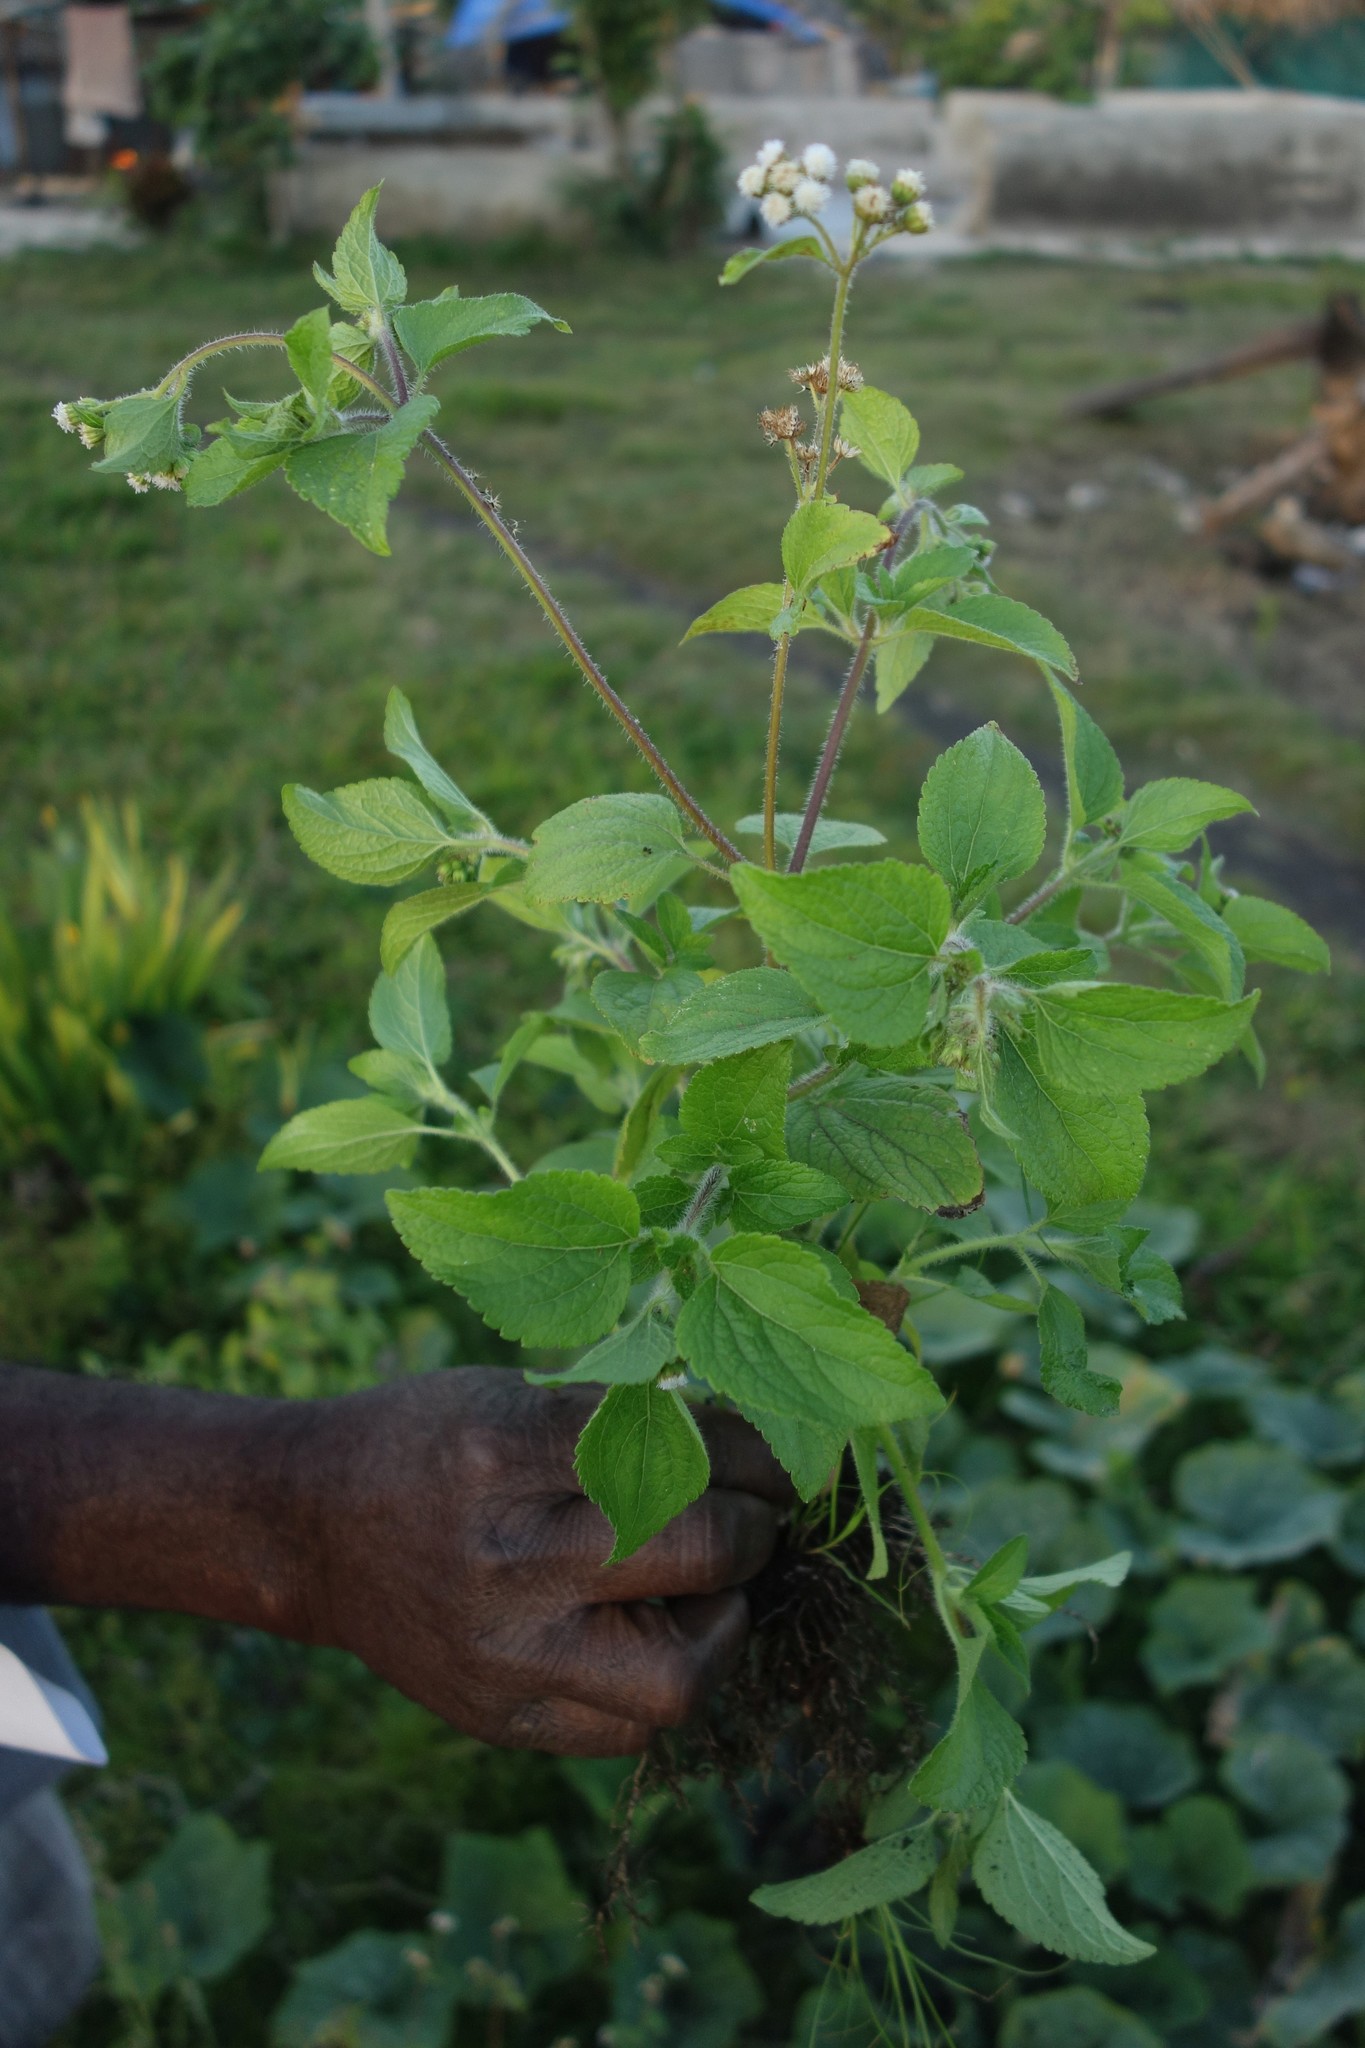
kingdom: Plantae
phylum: Tracheophyta
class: Magnoliopsida
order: Asterales
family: Asteraceae
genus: Ageratum
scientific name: Ageratum conyzoides
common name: Tropical whiteweed
